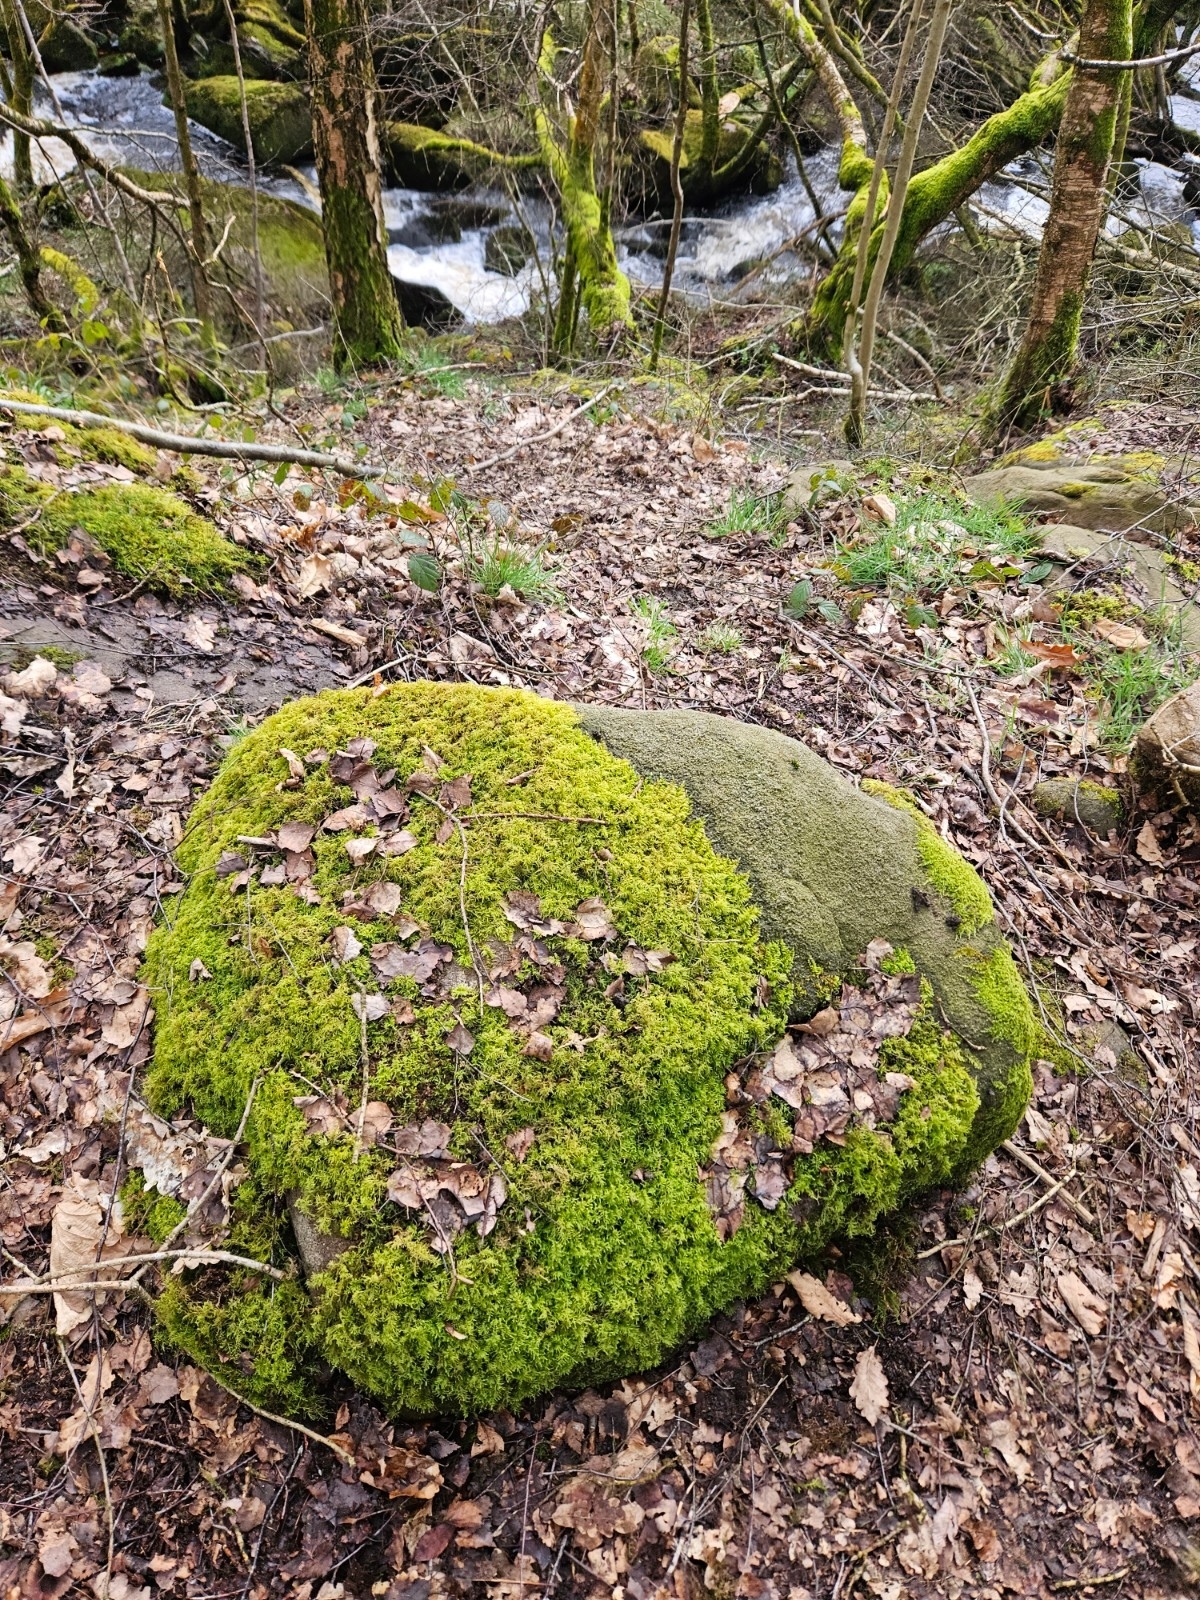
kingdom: Plantae
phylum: Bryophyta
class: Bryopsida
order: Hypnales
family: Brachytheciaceae
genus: Kindbergia
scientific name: Kindbergia praelonga
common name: Slender beaked moss
